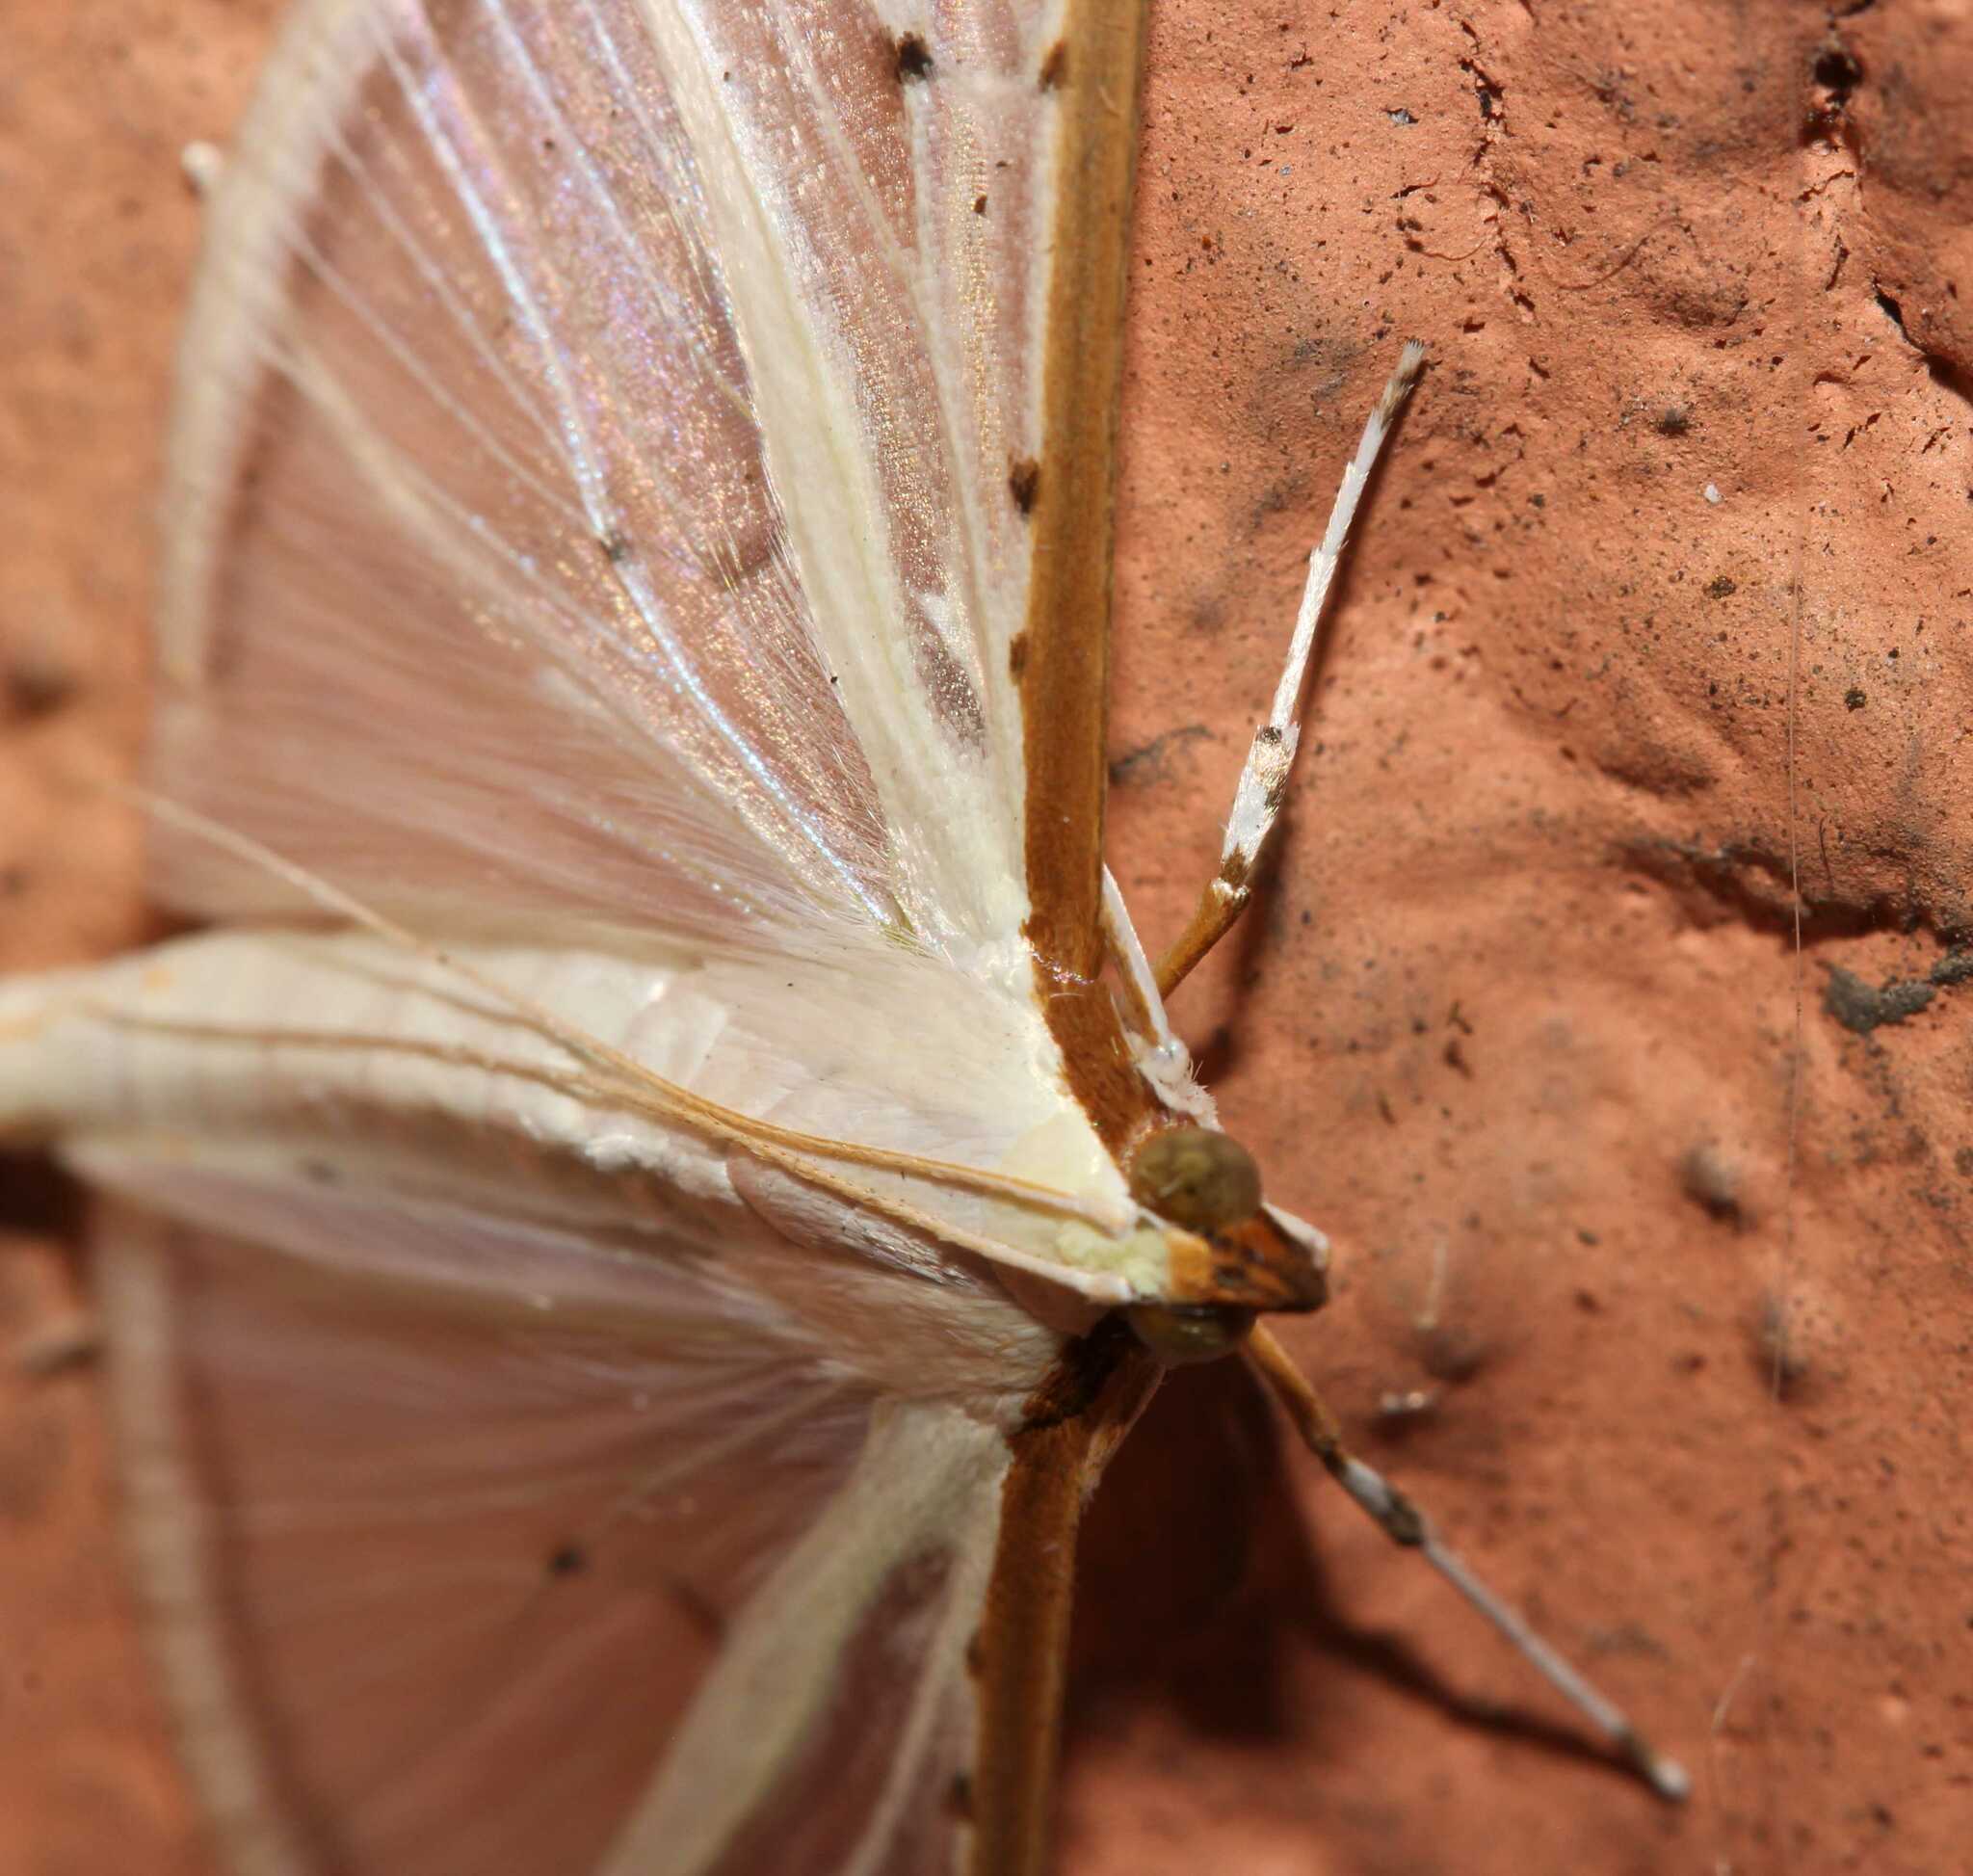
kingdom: Animalia
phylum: Arthropoda
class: Insecta
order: Lepidoptera
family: Crambidae
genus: Palpita
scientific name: Palpita quadristigmalis
